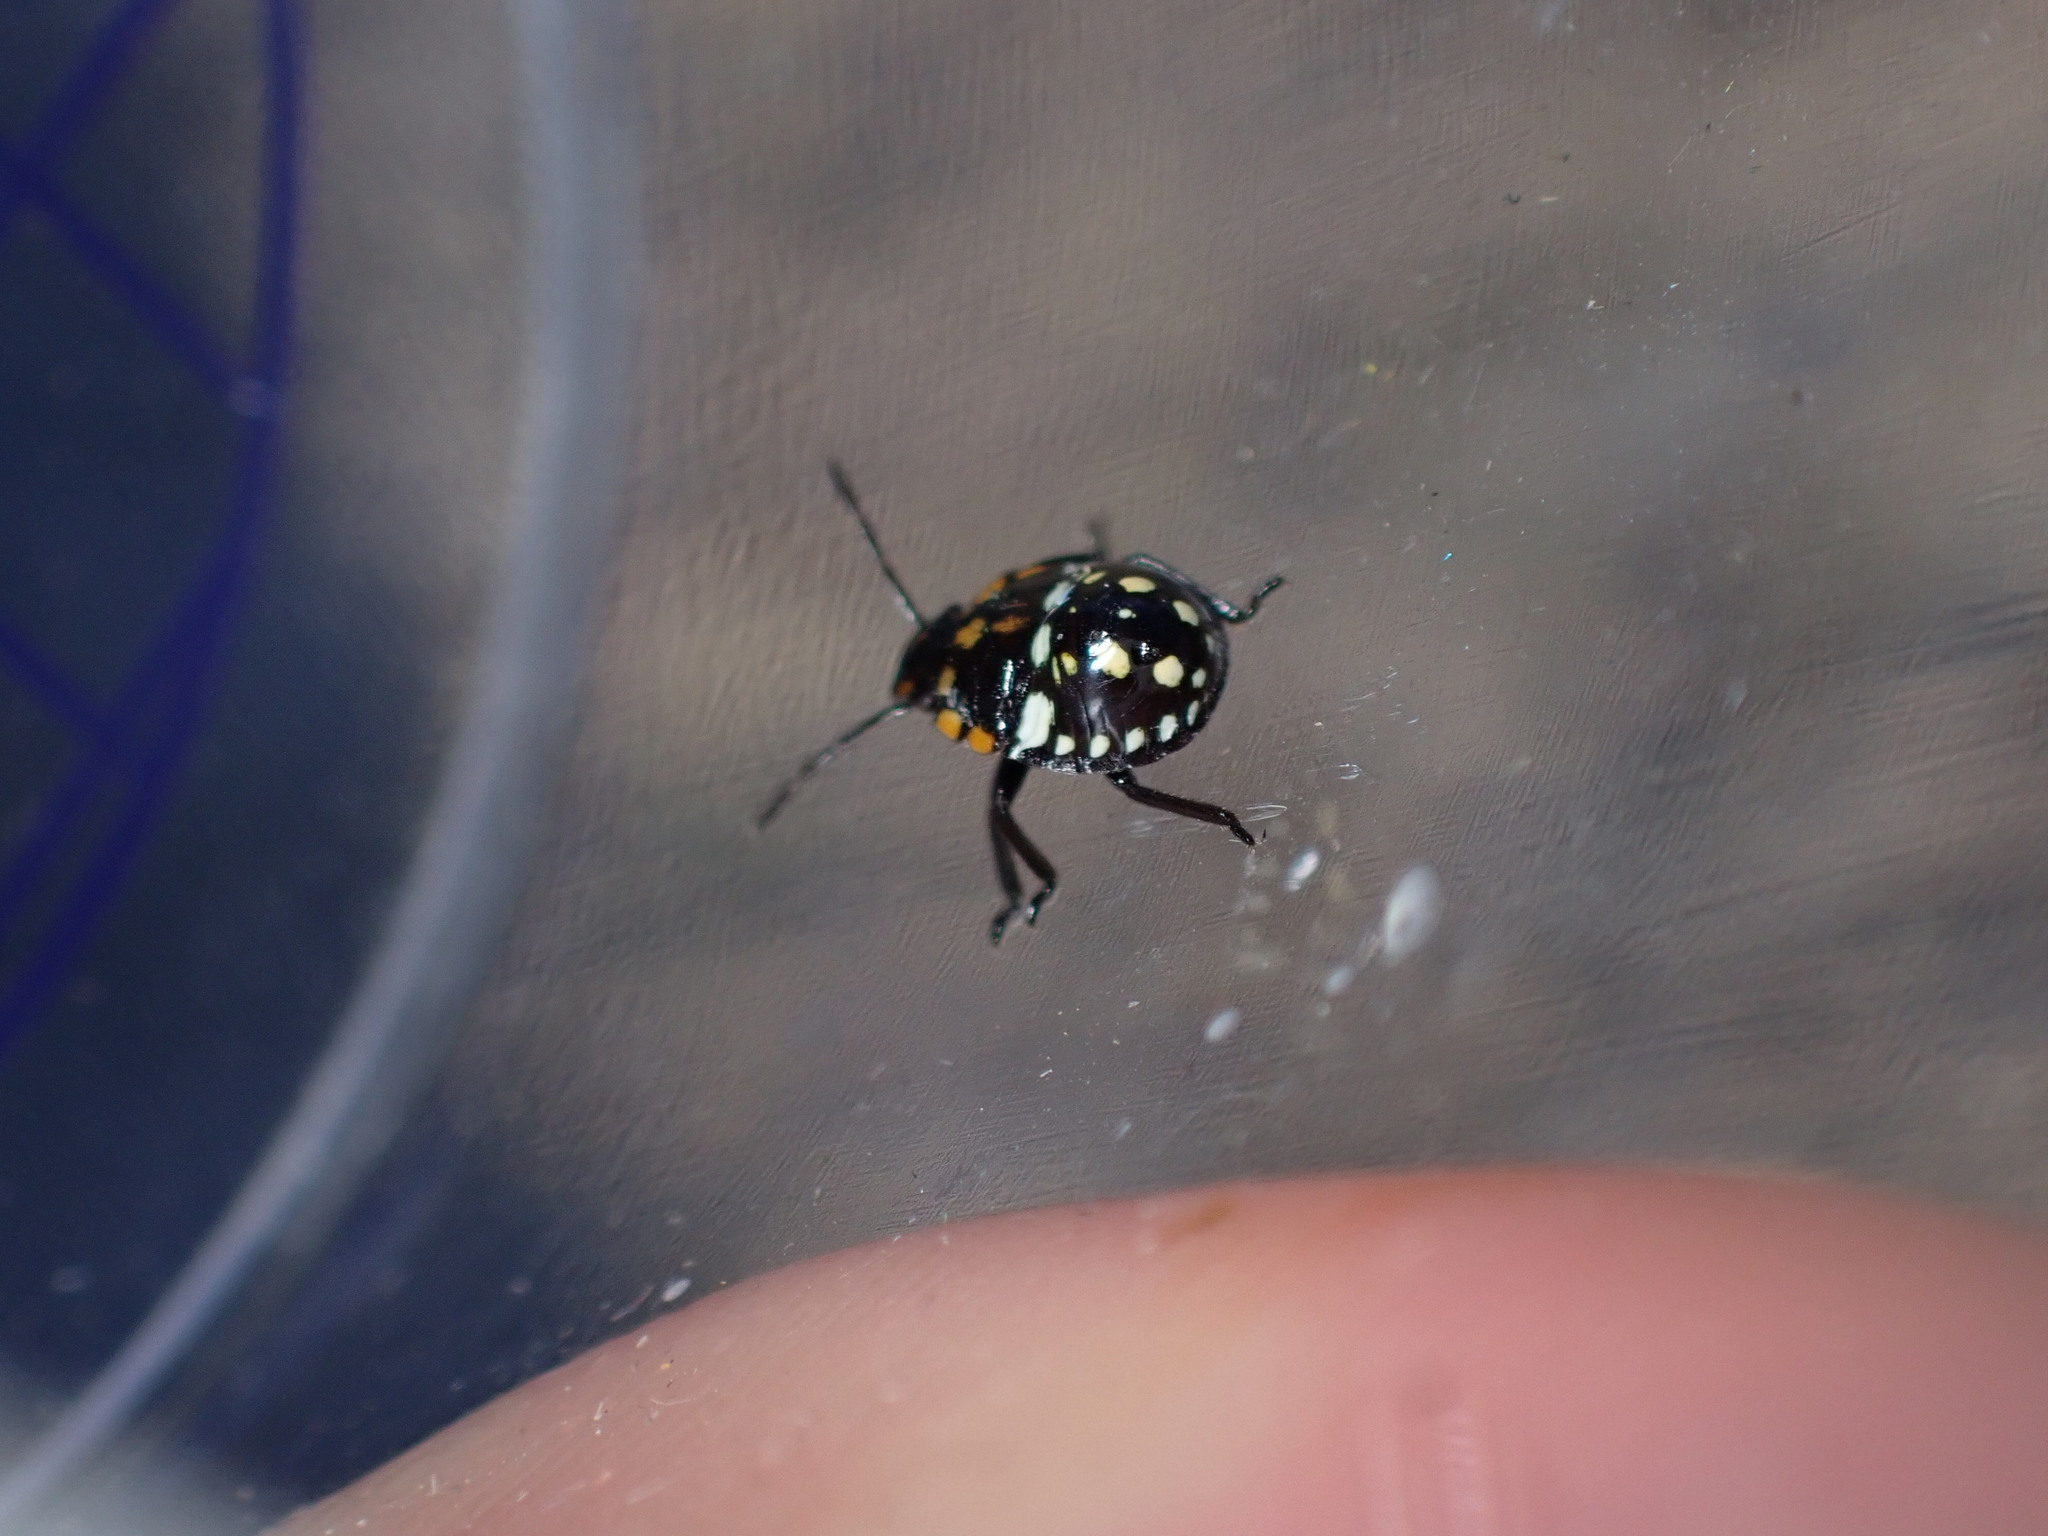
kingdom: Animalia
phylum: Arthropoda
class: Insecta
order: Hemiptera
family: Pentatomidae
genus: Nezara
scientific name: Nezara viridula
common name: Southern green stink bug
